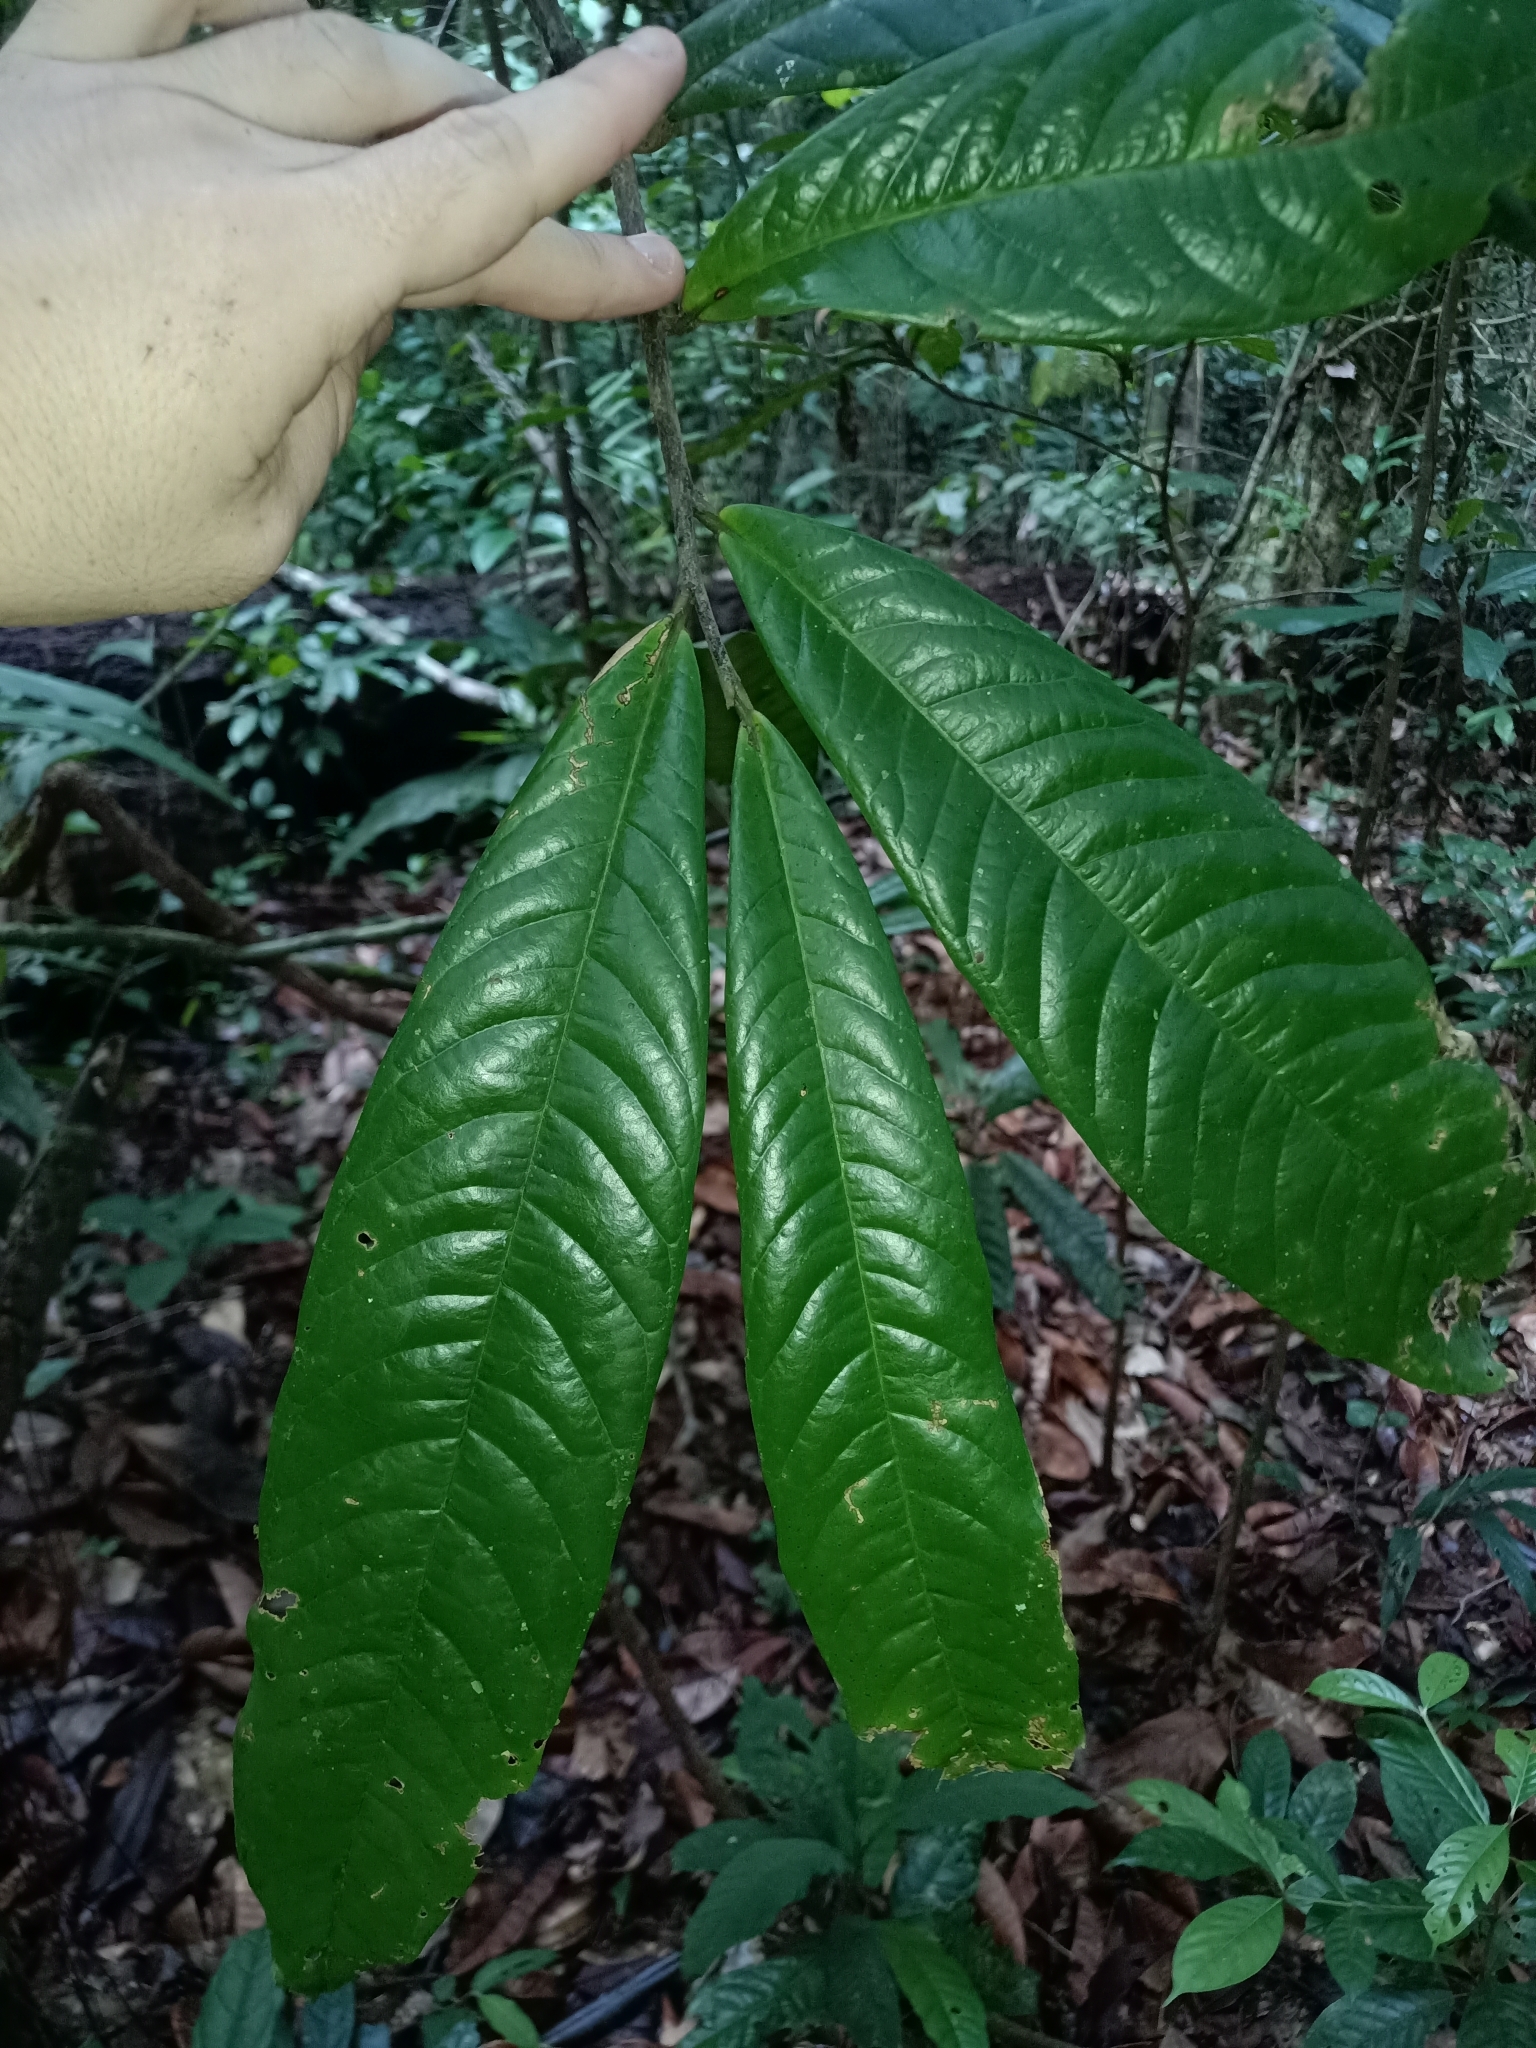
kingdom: Plantae
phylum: Tracheophyta
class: Magnoliopsida
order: Magnoliales
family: Annonaceae
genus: Duguetia
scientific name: Duguetia eximia
